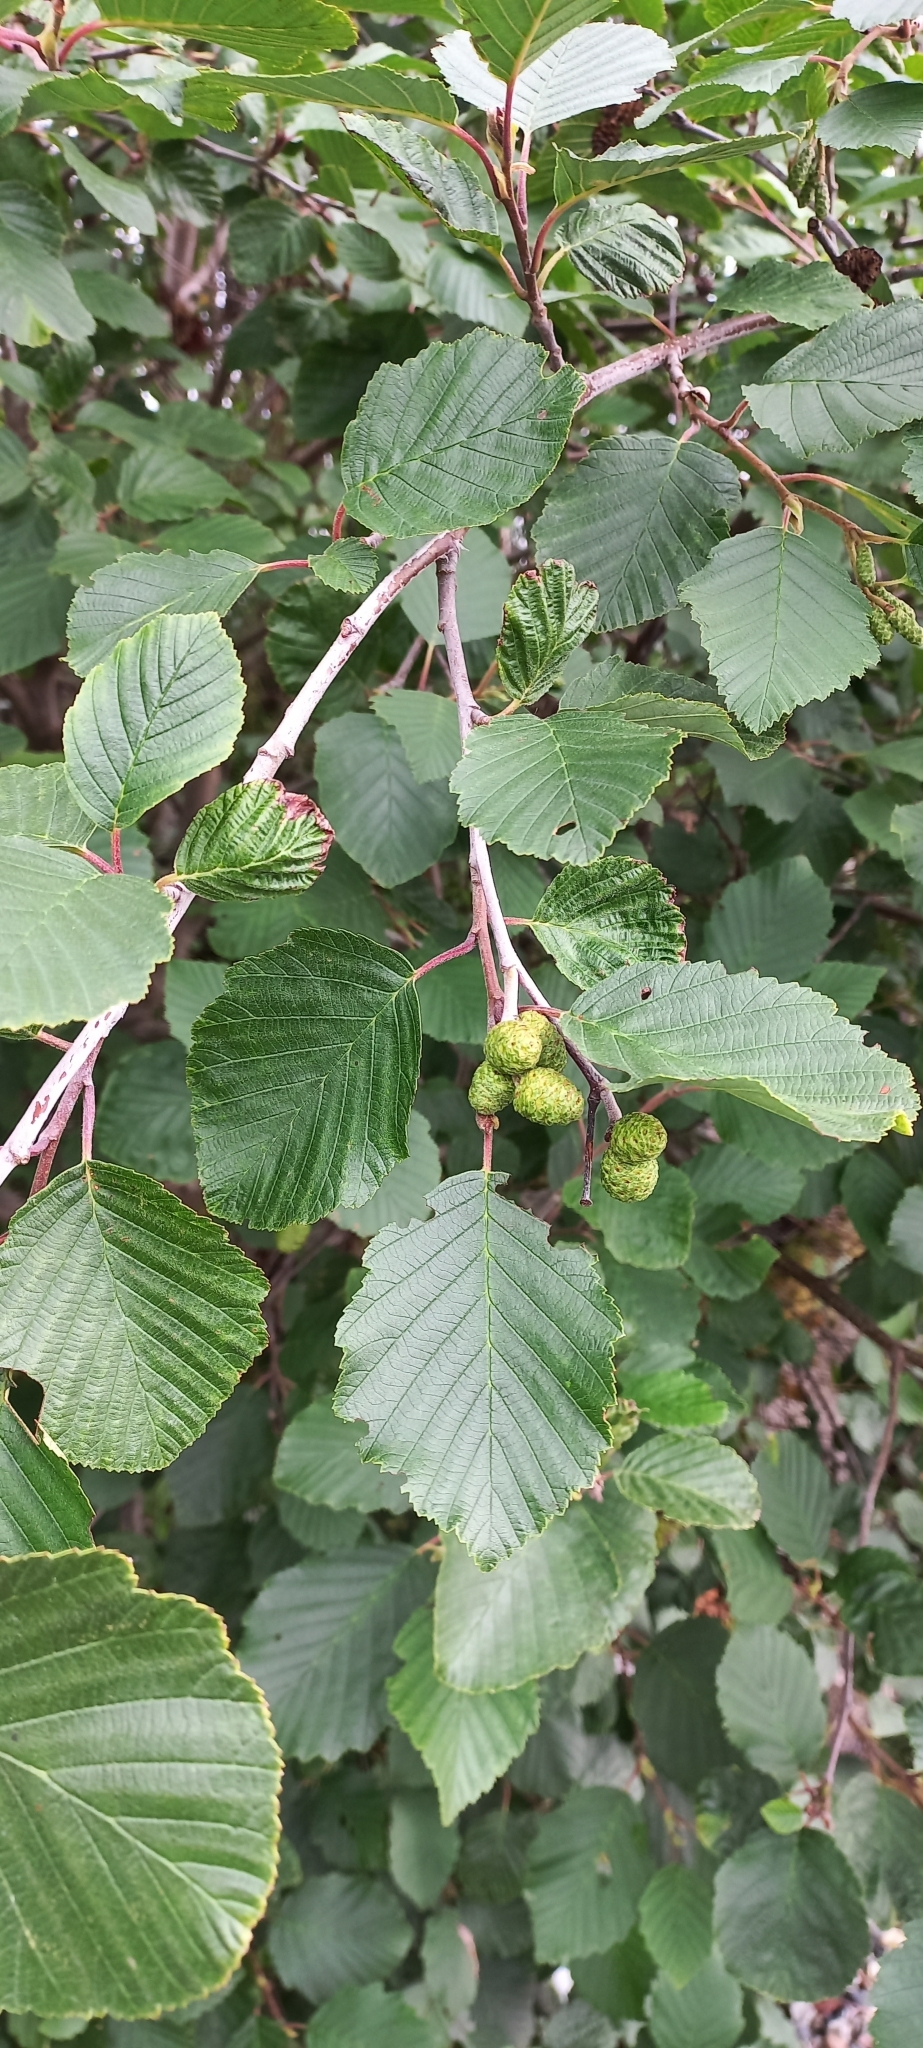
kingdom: Plantae
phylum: Tracheophyta
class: Magnoliopsida
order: Fagales
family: Betulaceae
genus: Alnus
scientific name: Alnus incana
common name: Grey alder
